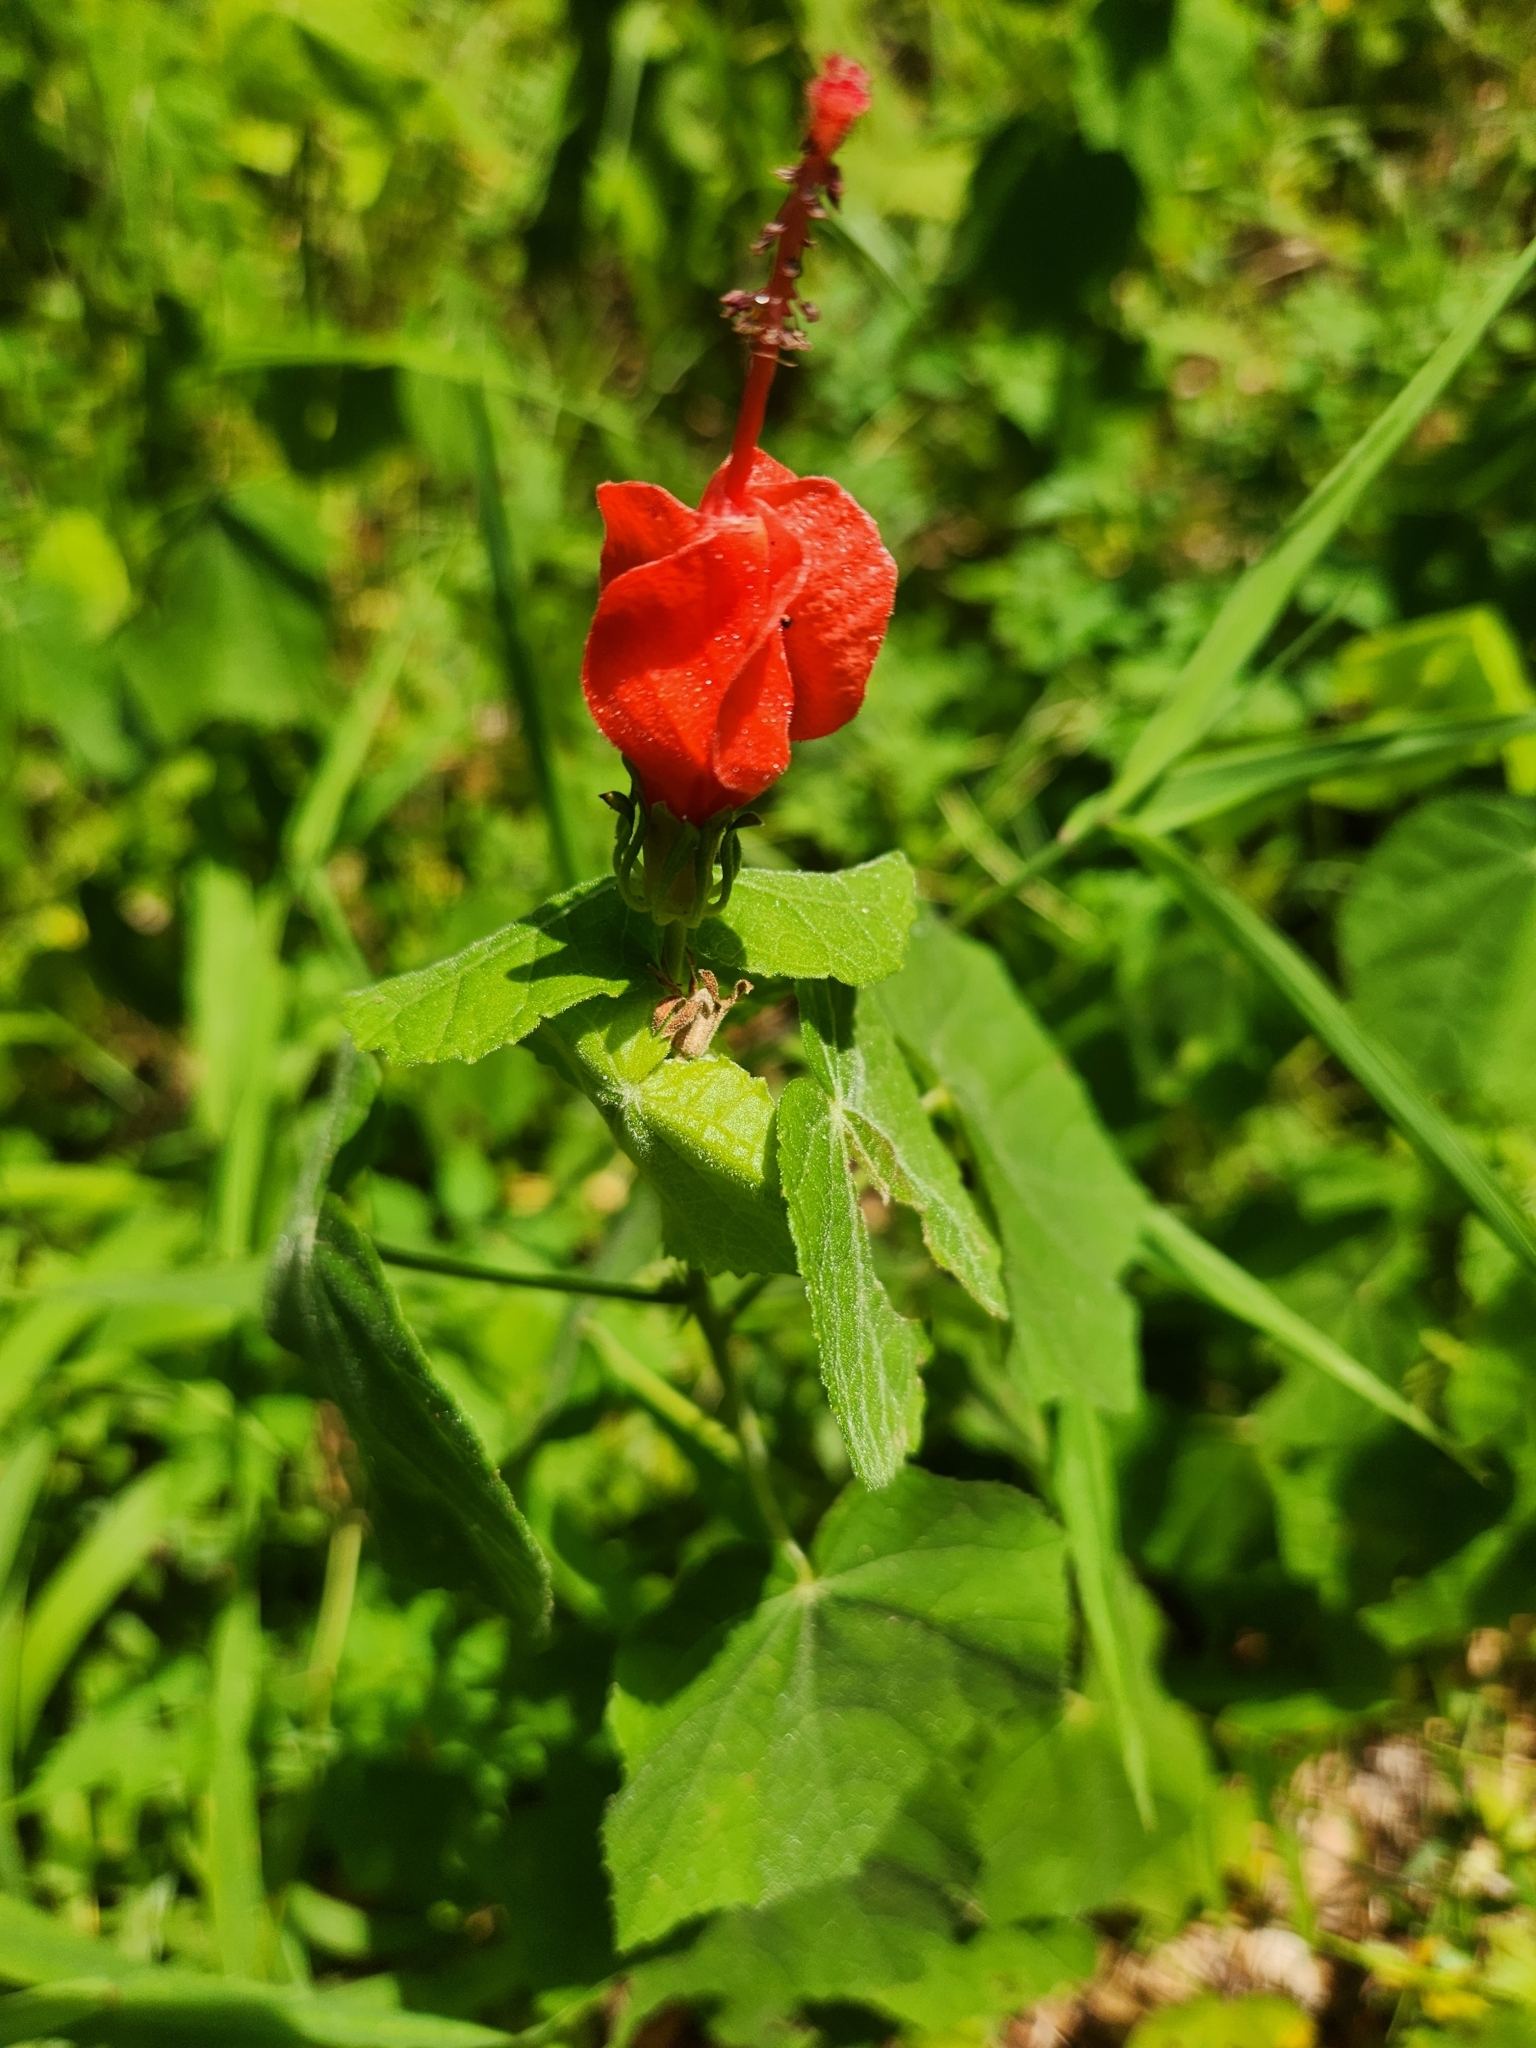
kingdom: Plantae
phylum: Tracheophyta
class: Magnoliopsida
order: Malvales
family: Malvaceae
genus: Malvaviscus
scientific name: Malvaviscus arboreus
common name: Wax mallow
